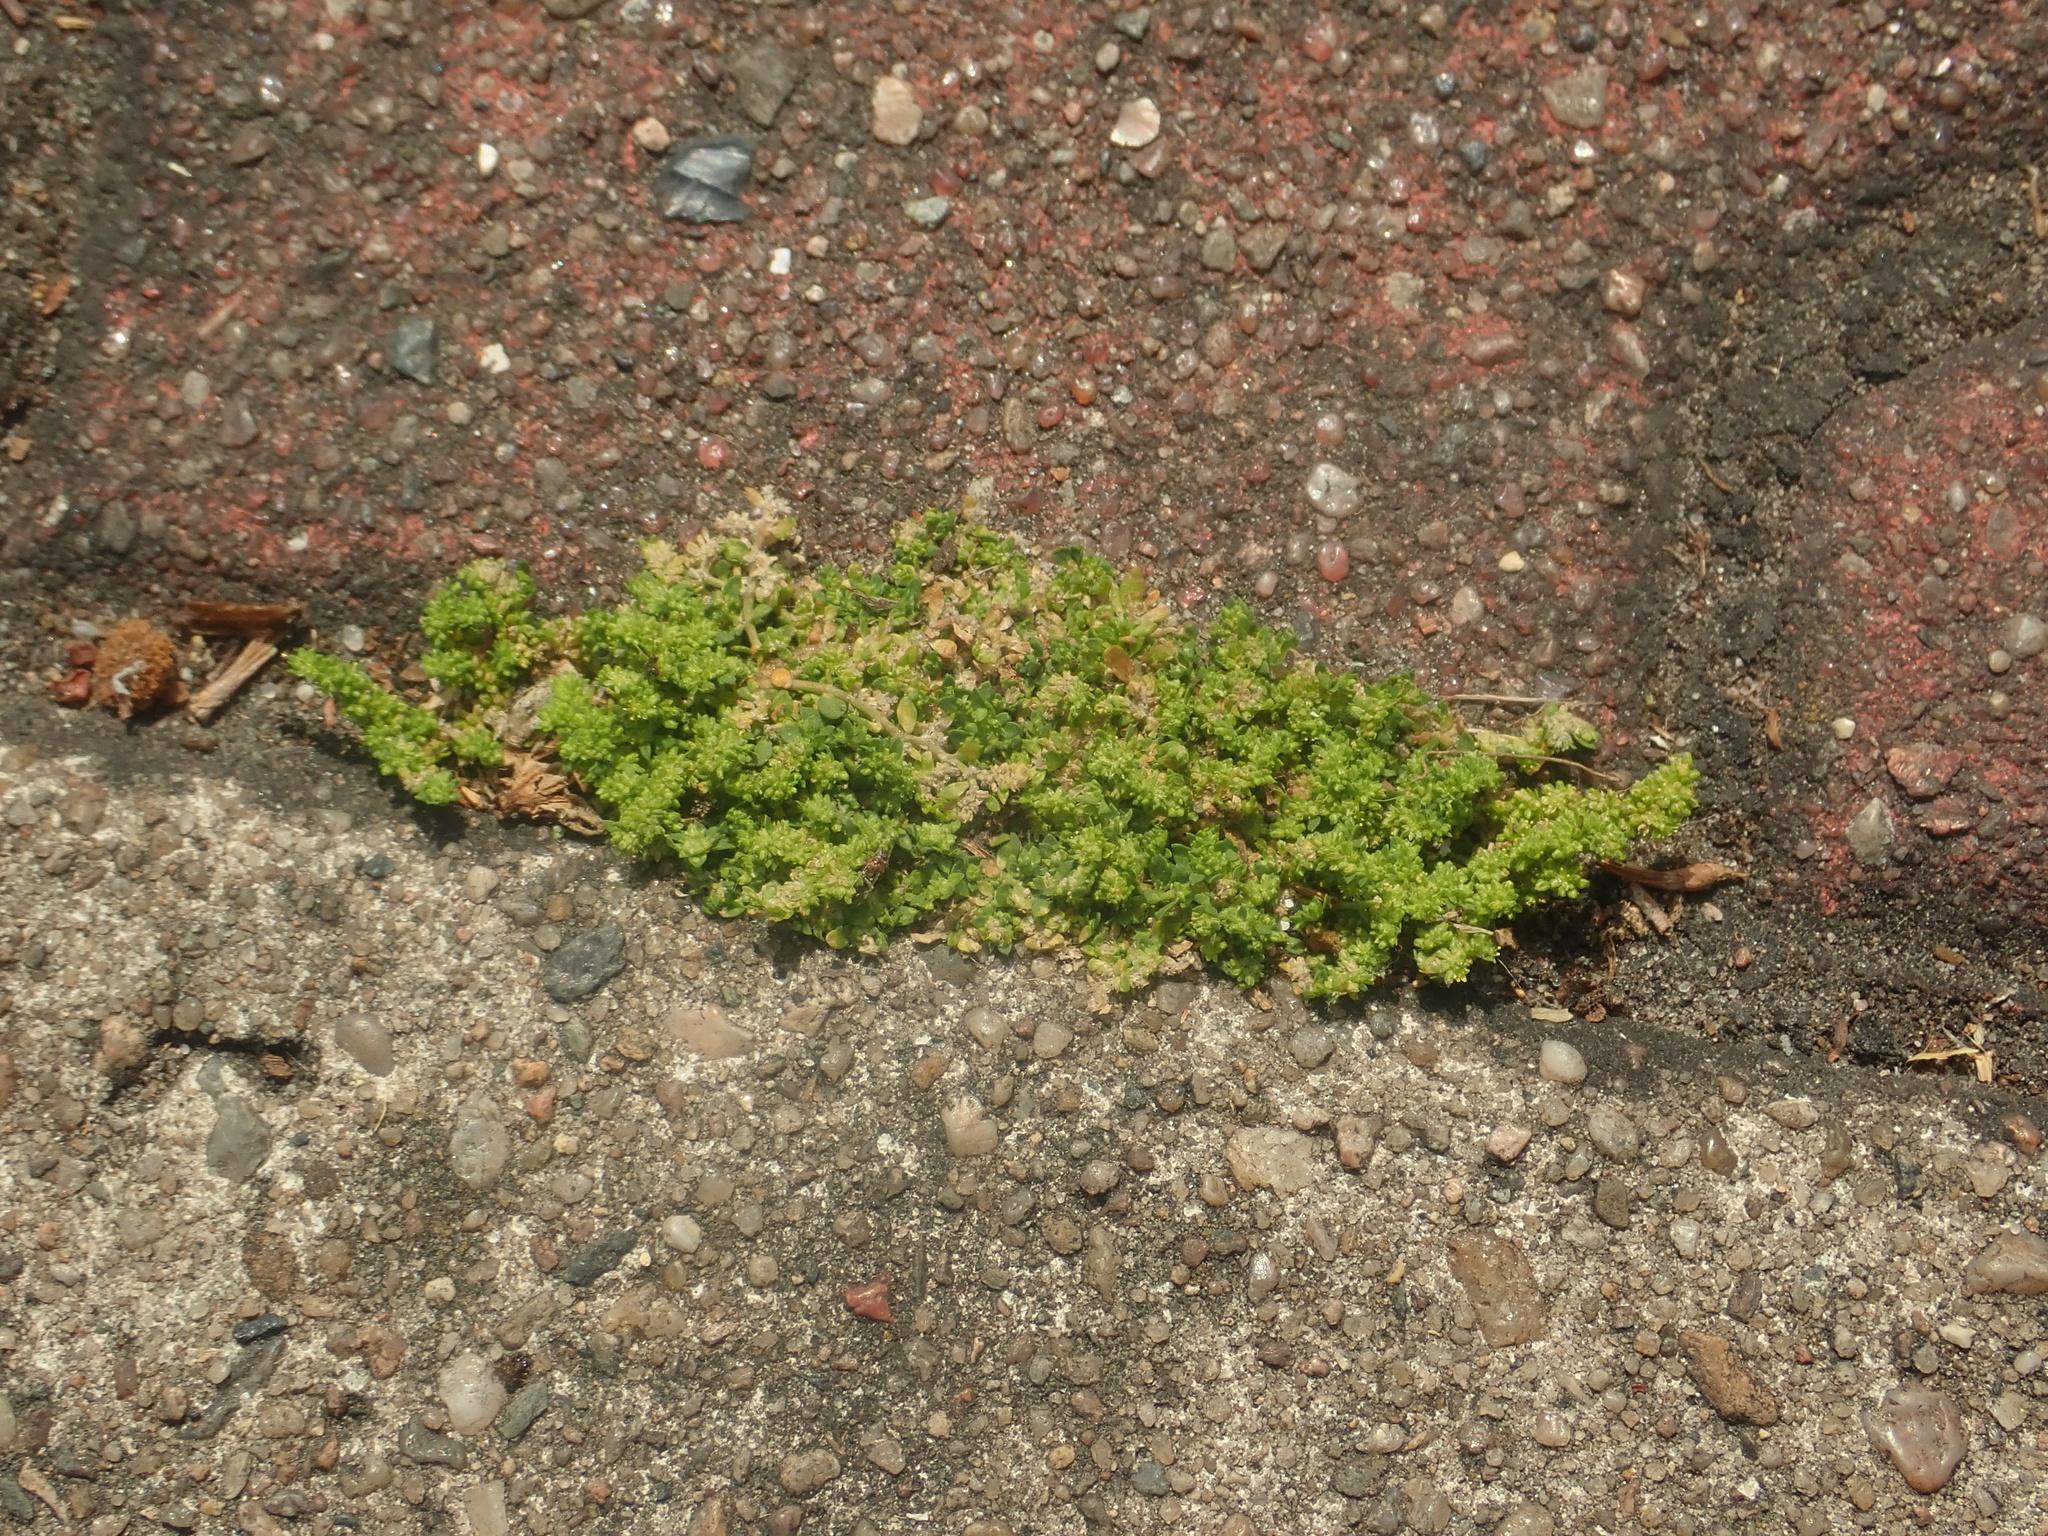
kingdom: Plantae
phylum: Tracheophyta
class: Magnoliopsida
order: Caryophyllales
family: Caryophyllaceae
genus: Herniaria
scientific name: Herniaria glabra
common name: Smooth rupturewort
